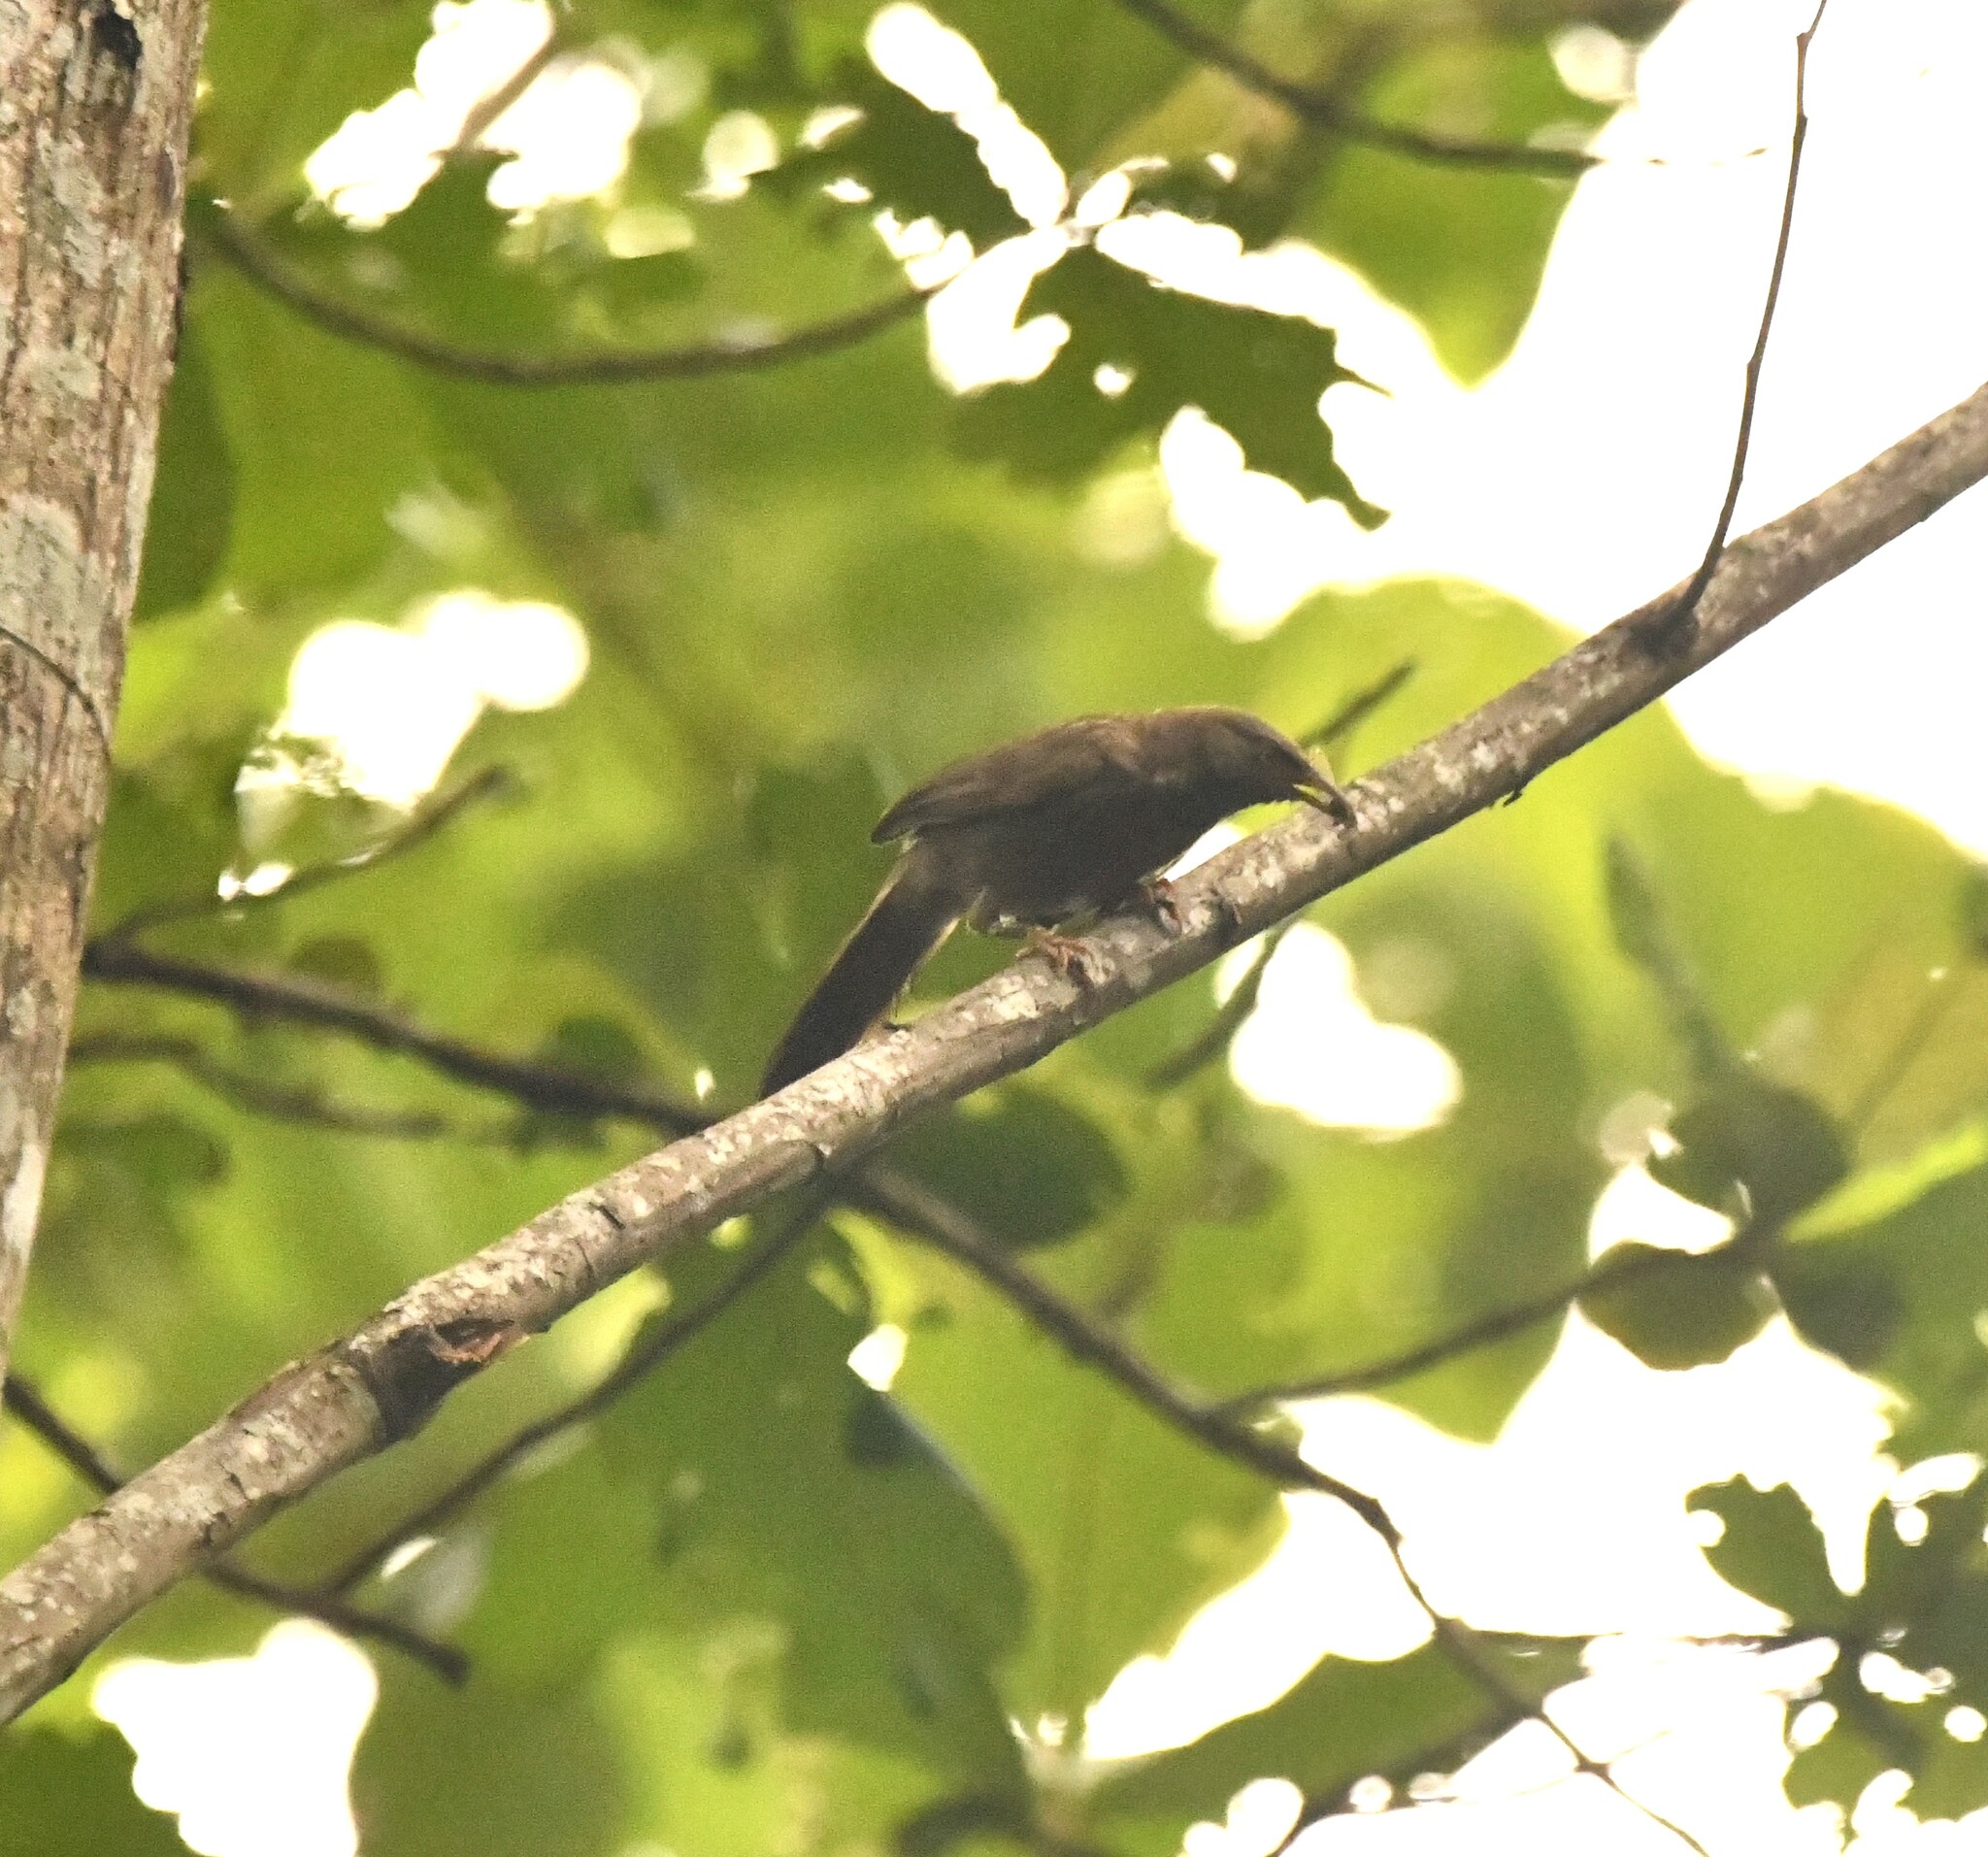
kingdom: Animalia
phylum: Chordata
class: Aves
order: Passeriformes
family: Leiothrichidae
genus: Turdoides
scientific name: Turdoides striata
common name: Jungle babbler
